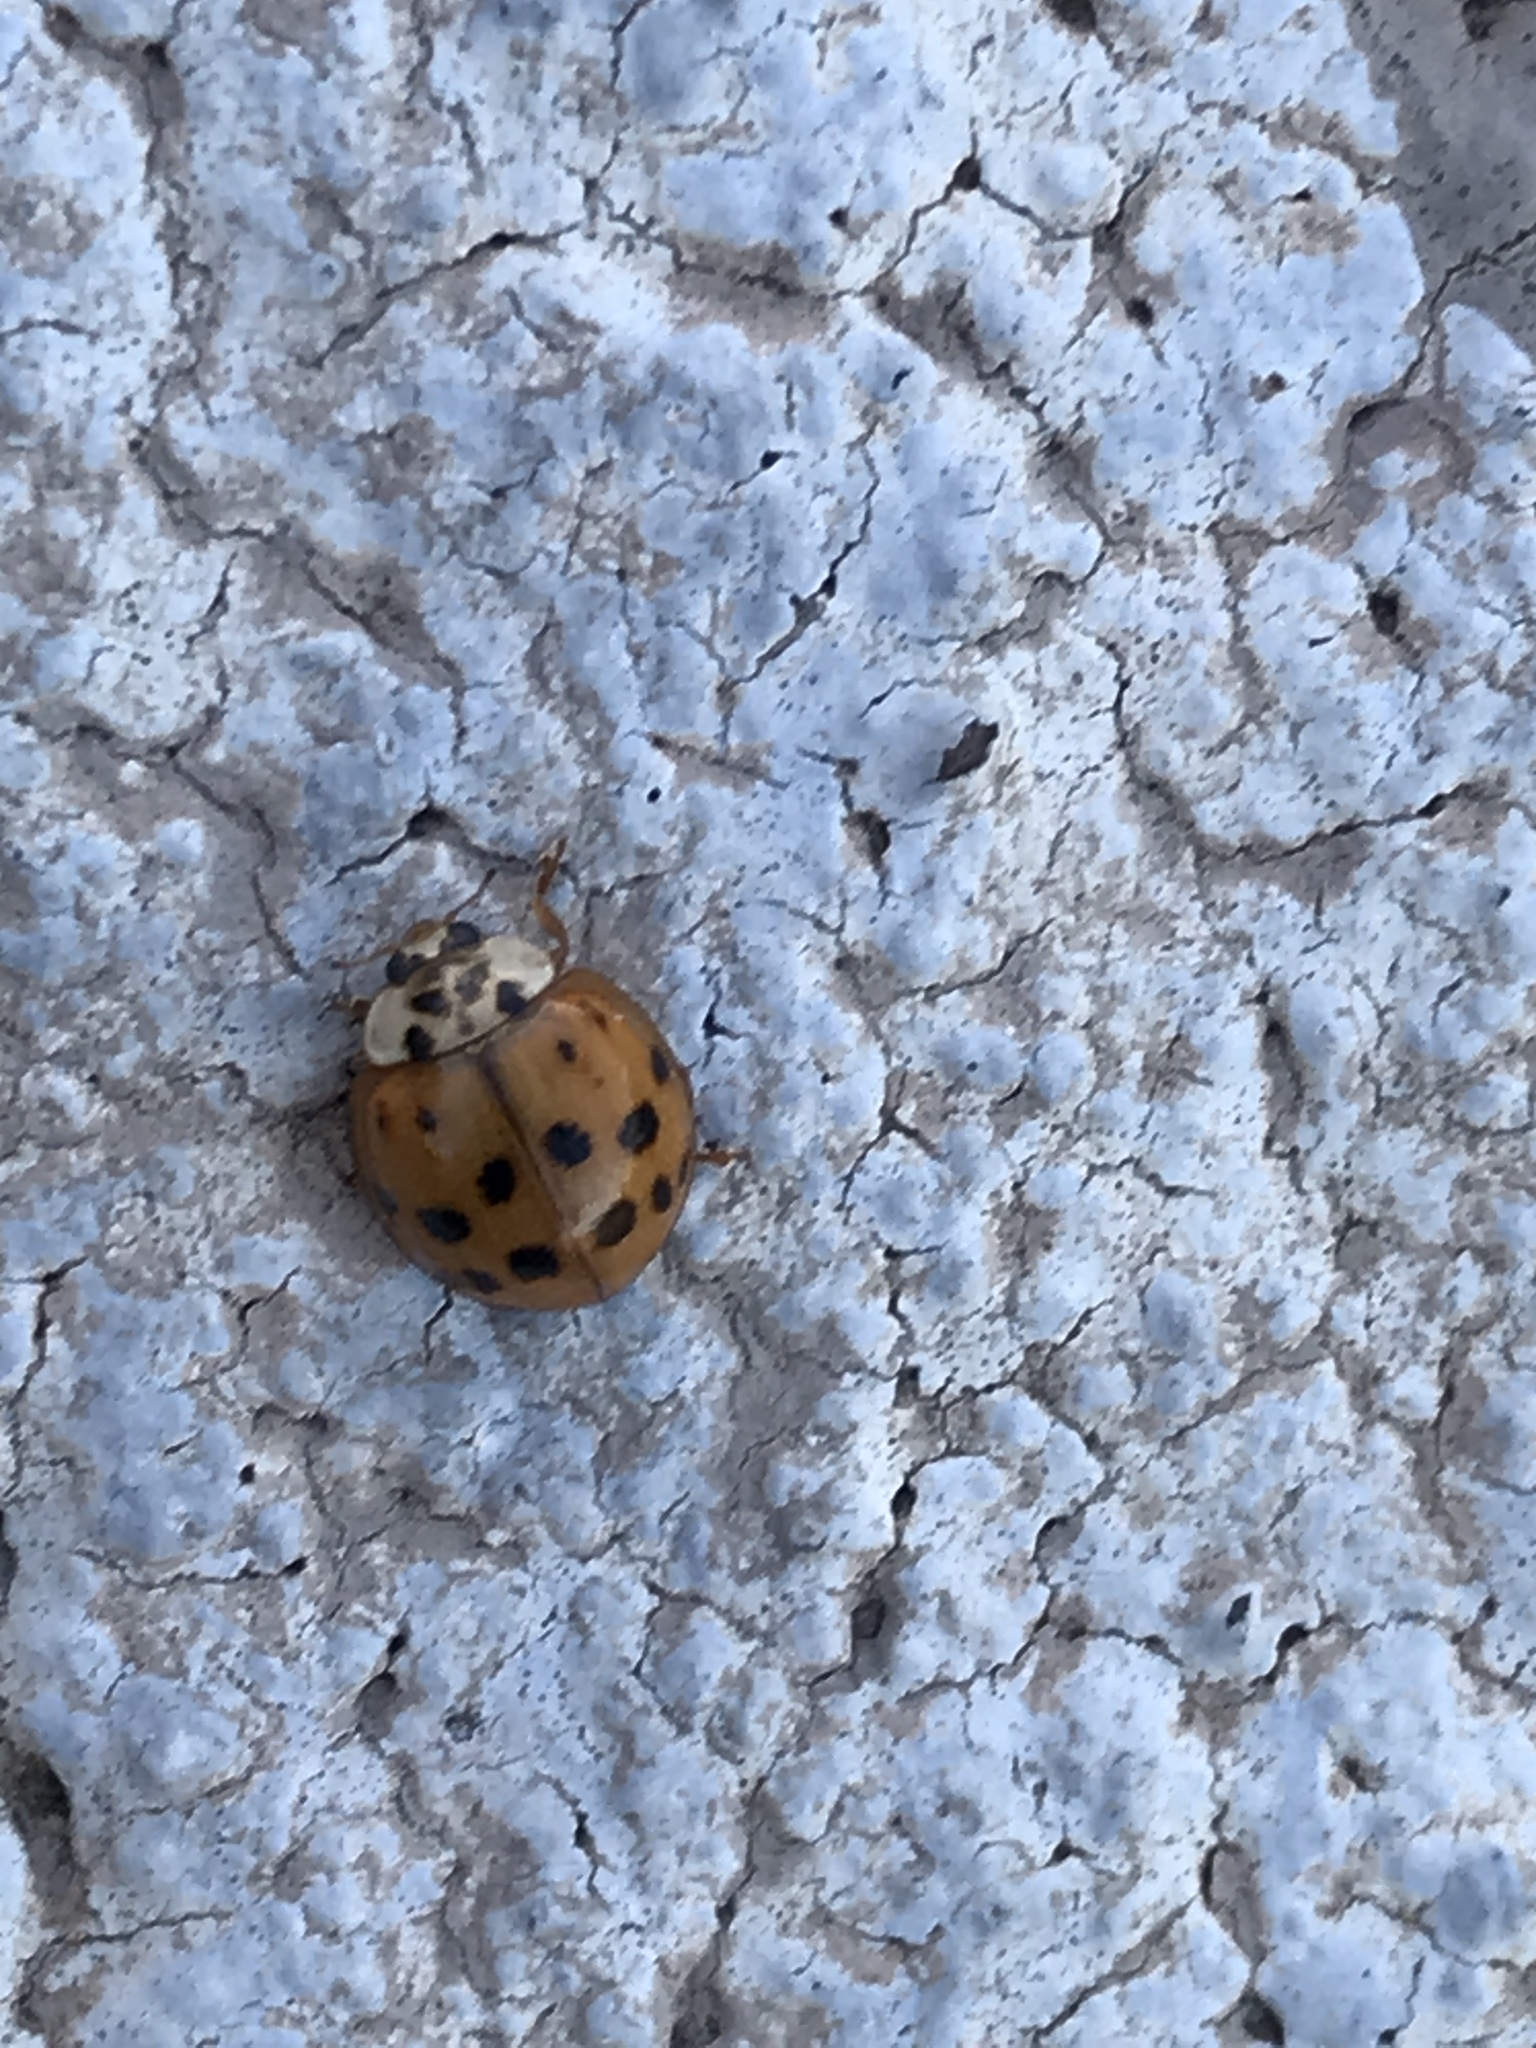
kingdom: Animalia
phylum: Arthropoda
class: Insecta
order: Coleoptera
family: Coccinellidae
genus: Harmonia
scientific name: Harmonia axyridis
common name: Harlequin ladybird
